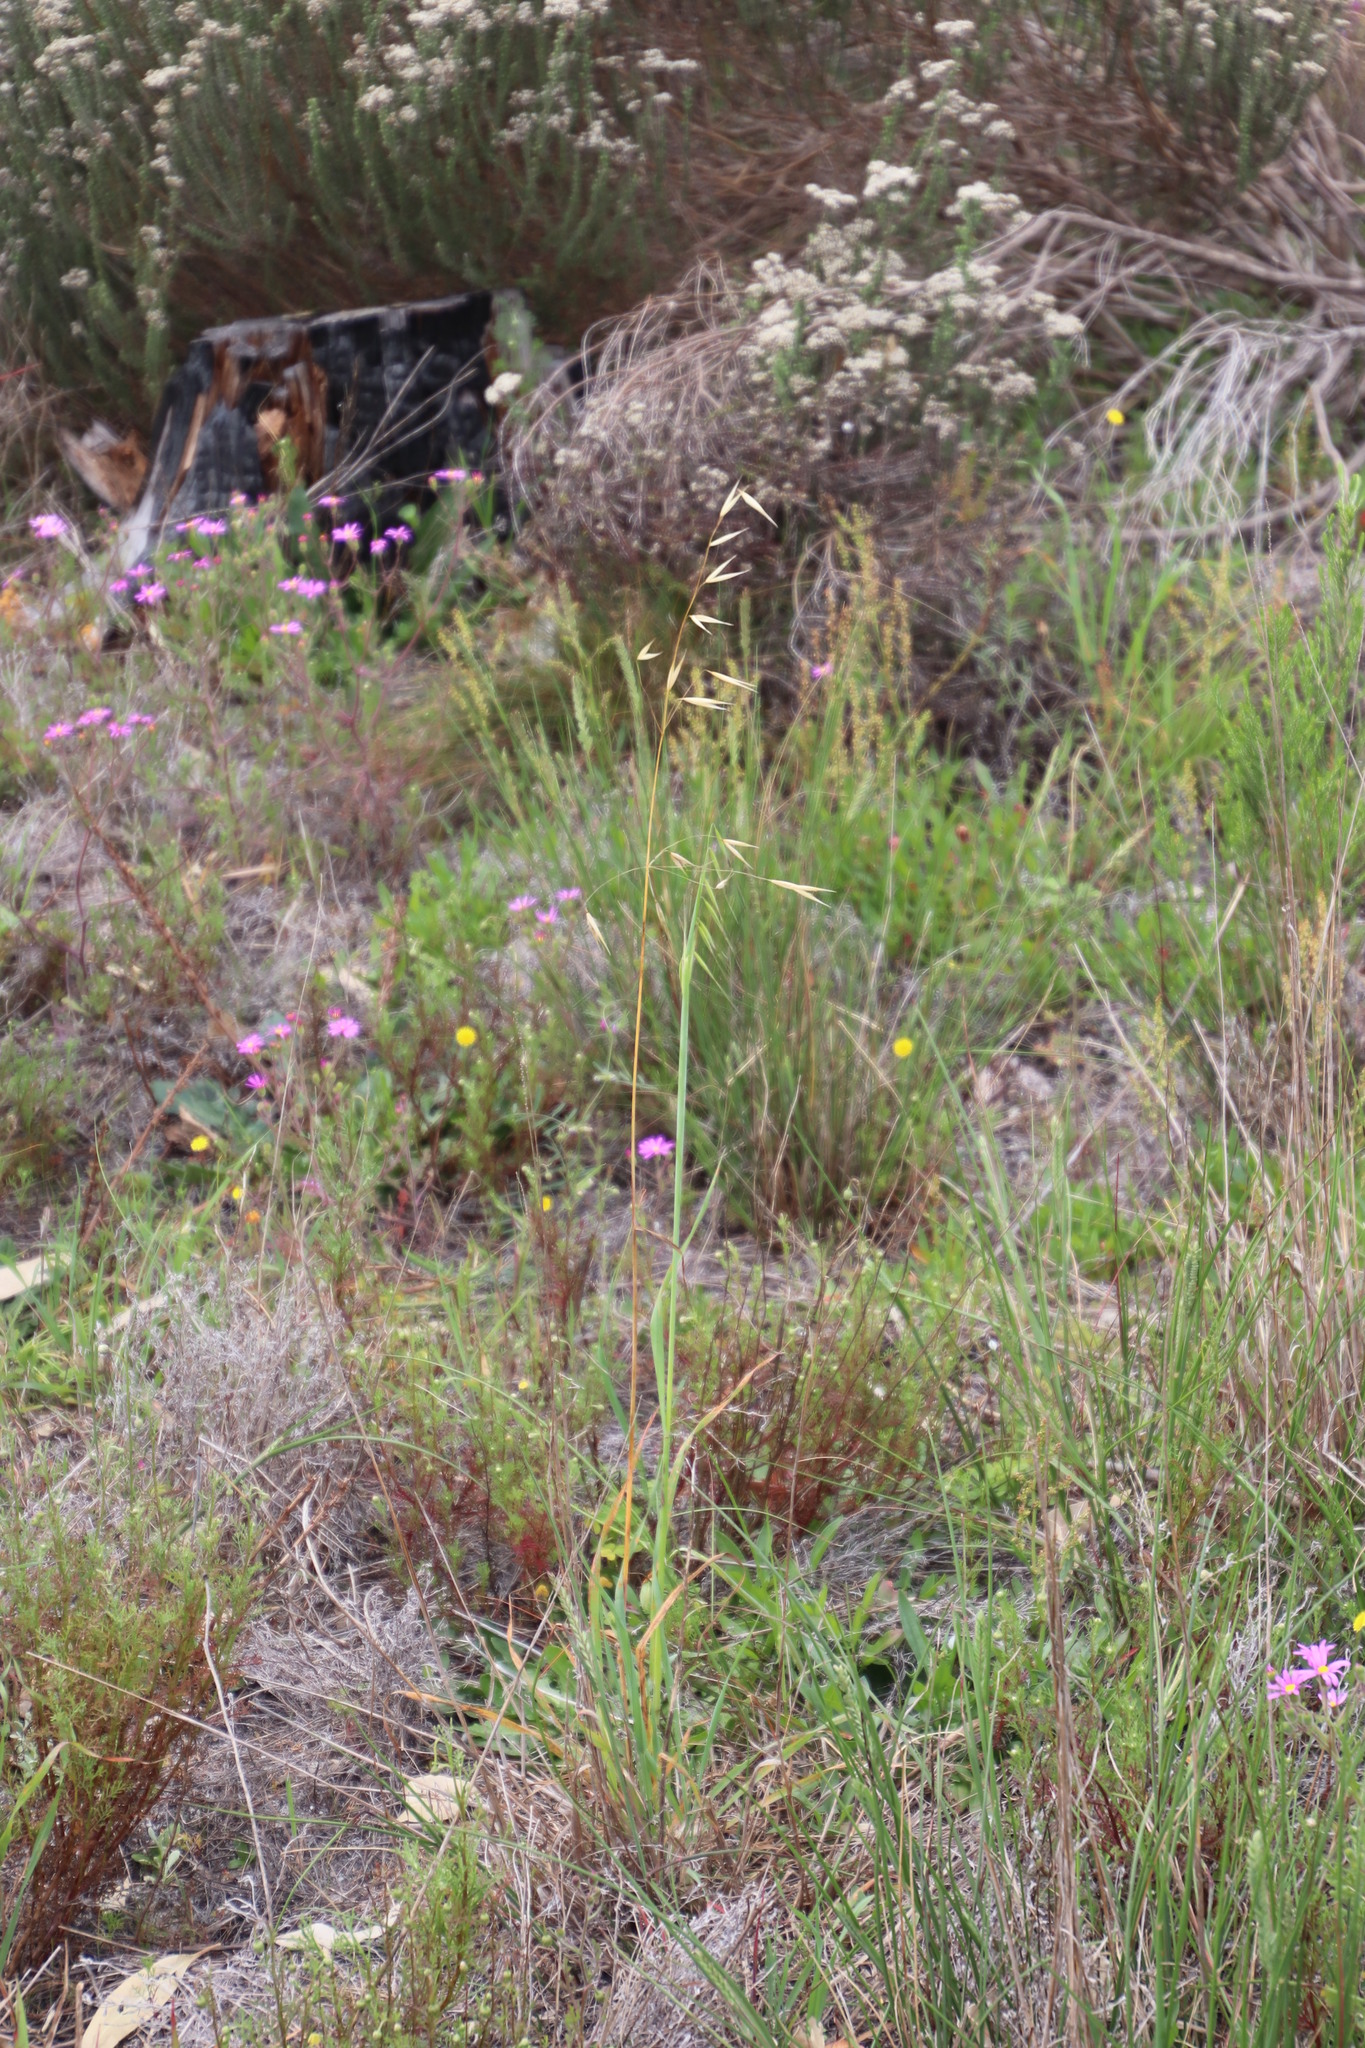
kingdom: Plantae
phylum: Tracheophyta
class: Liliopsida
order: Poales
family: Poaceae
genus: Avena
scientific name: Avena fatua
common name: Wild oat
